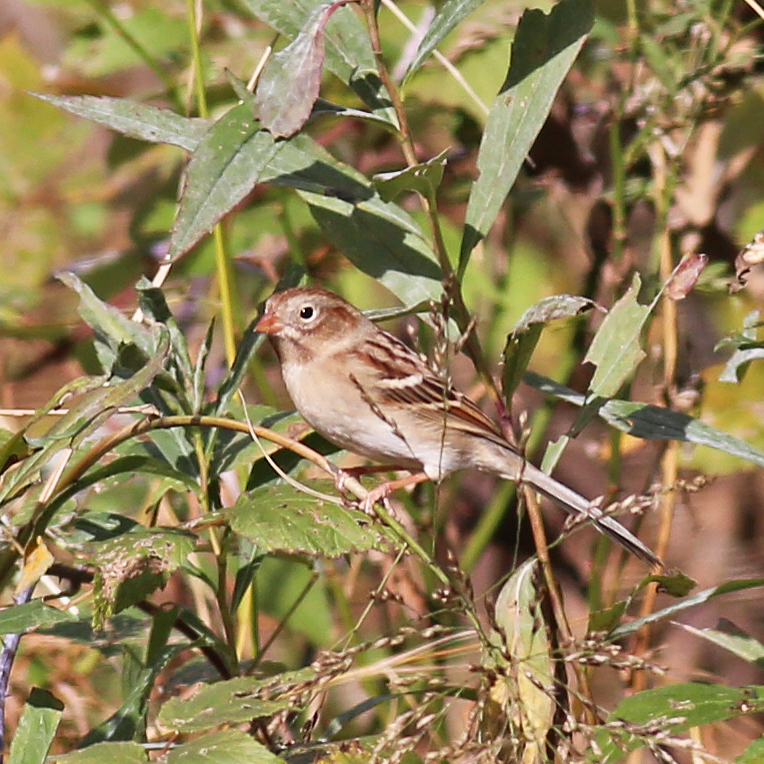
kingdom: Animalia
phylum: Chordata
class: Aves
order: Passeriformes
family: Passerellidae
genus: Spizella
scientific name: Spizella pusilla
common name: Field sparrow
